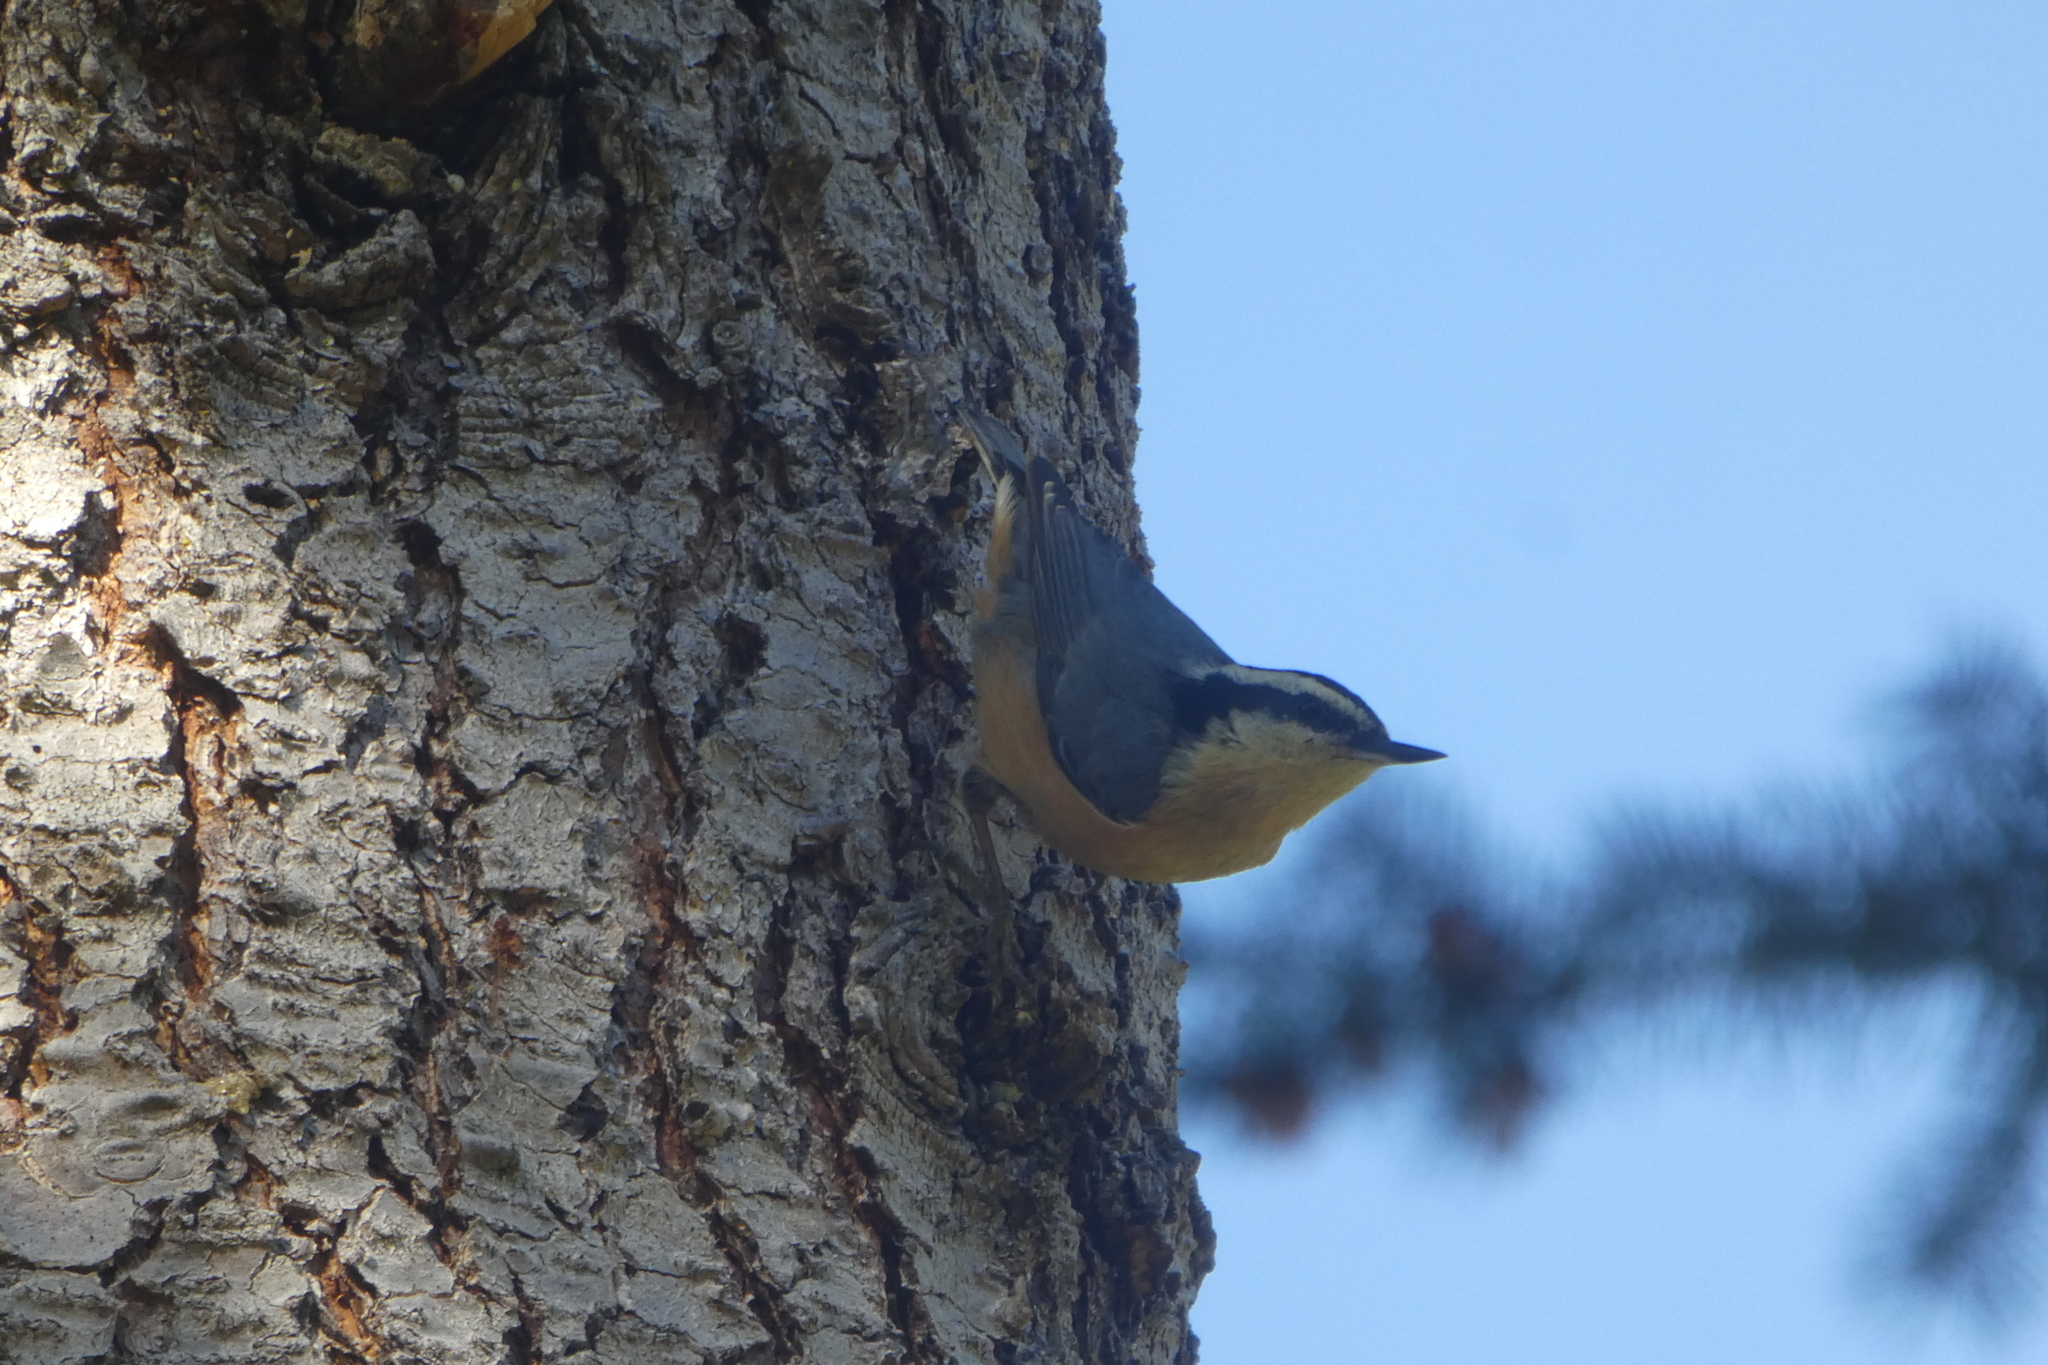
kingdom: Animalia
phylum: Chordata
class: Aves
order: Passeriformes
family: Sittidae
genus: Sitta
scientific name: Sitta canadensis
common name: Red-breasted nuthatch
